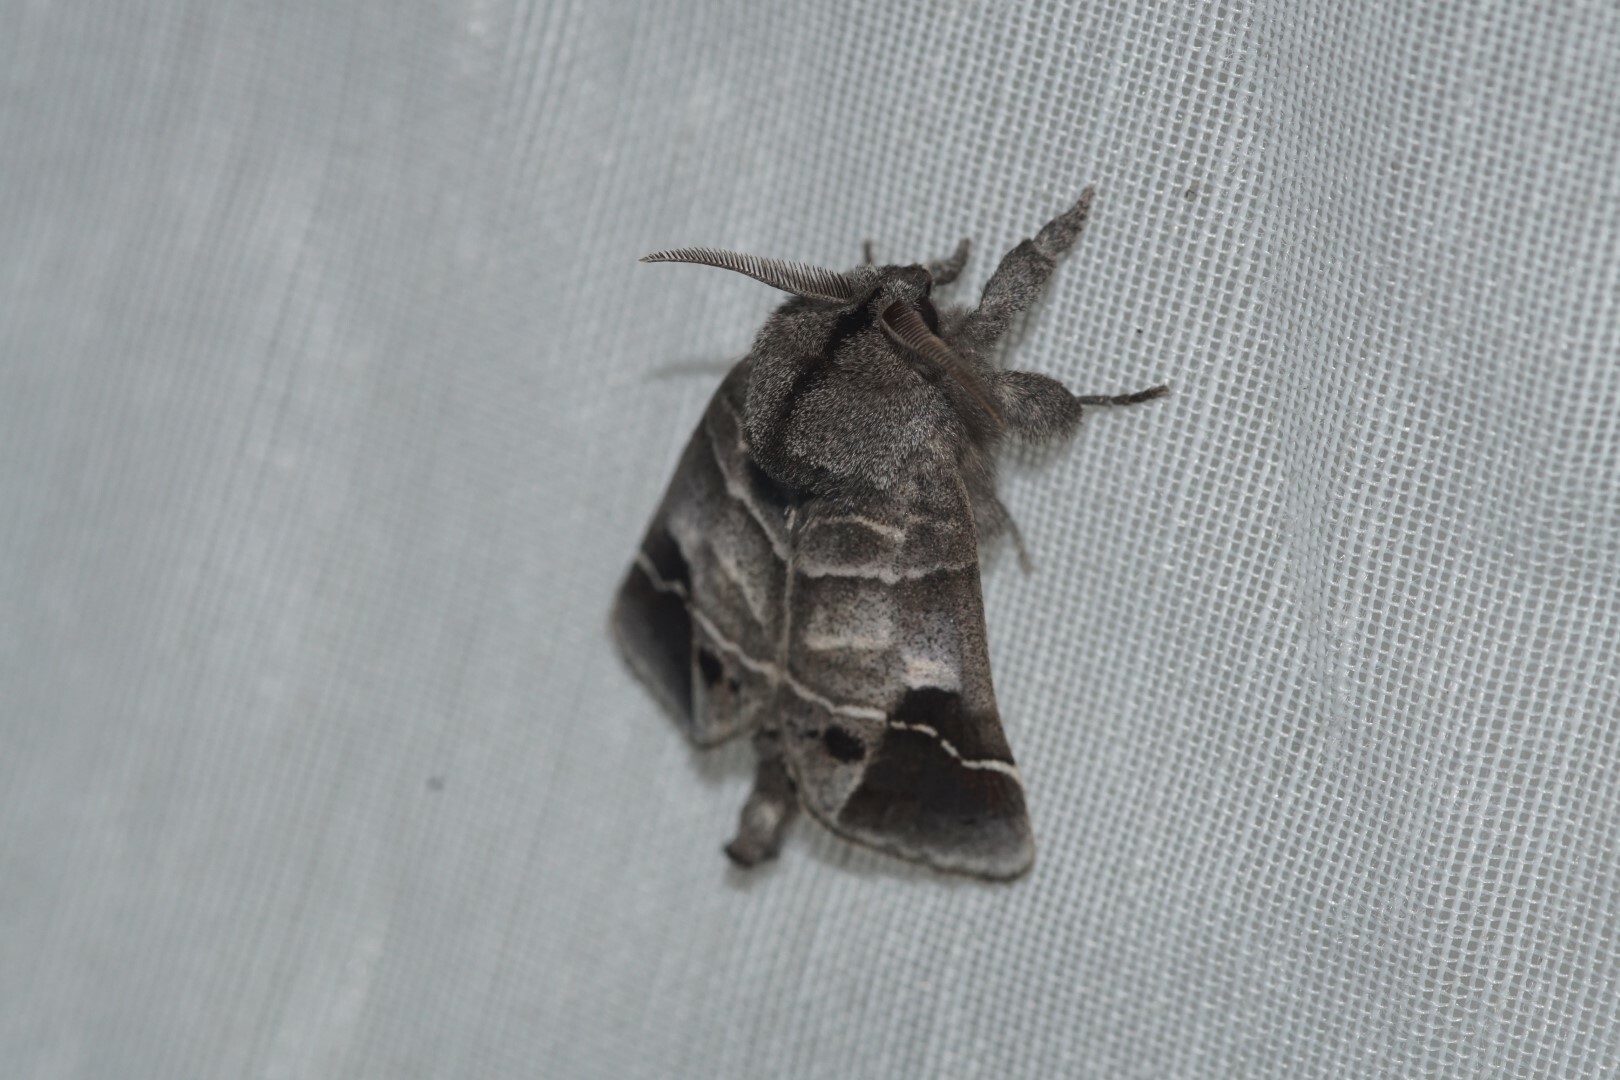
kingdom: Animalia
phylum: Arthropoda
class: Insecta
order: Lepidoptera
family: Notodontidae
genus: Clostera
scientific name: Clostera anachoreta
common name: Scarce chocolate-tip
